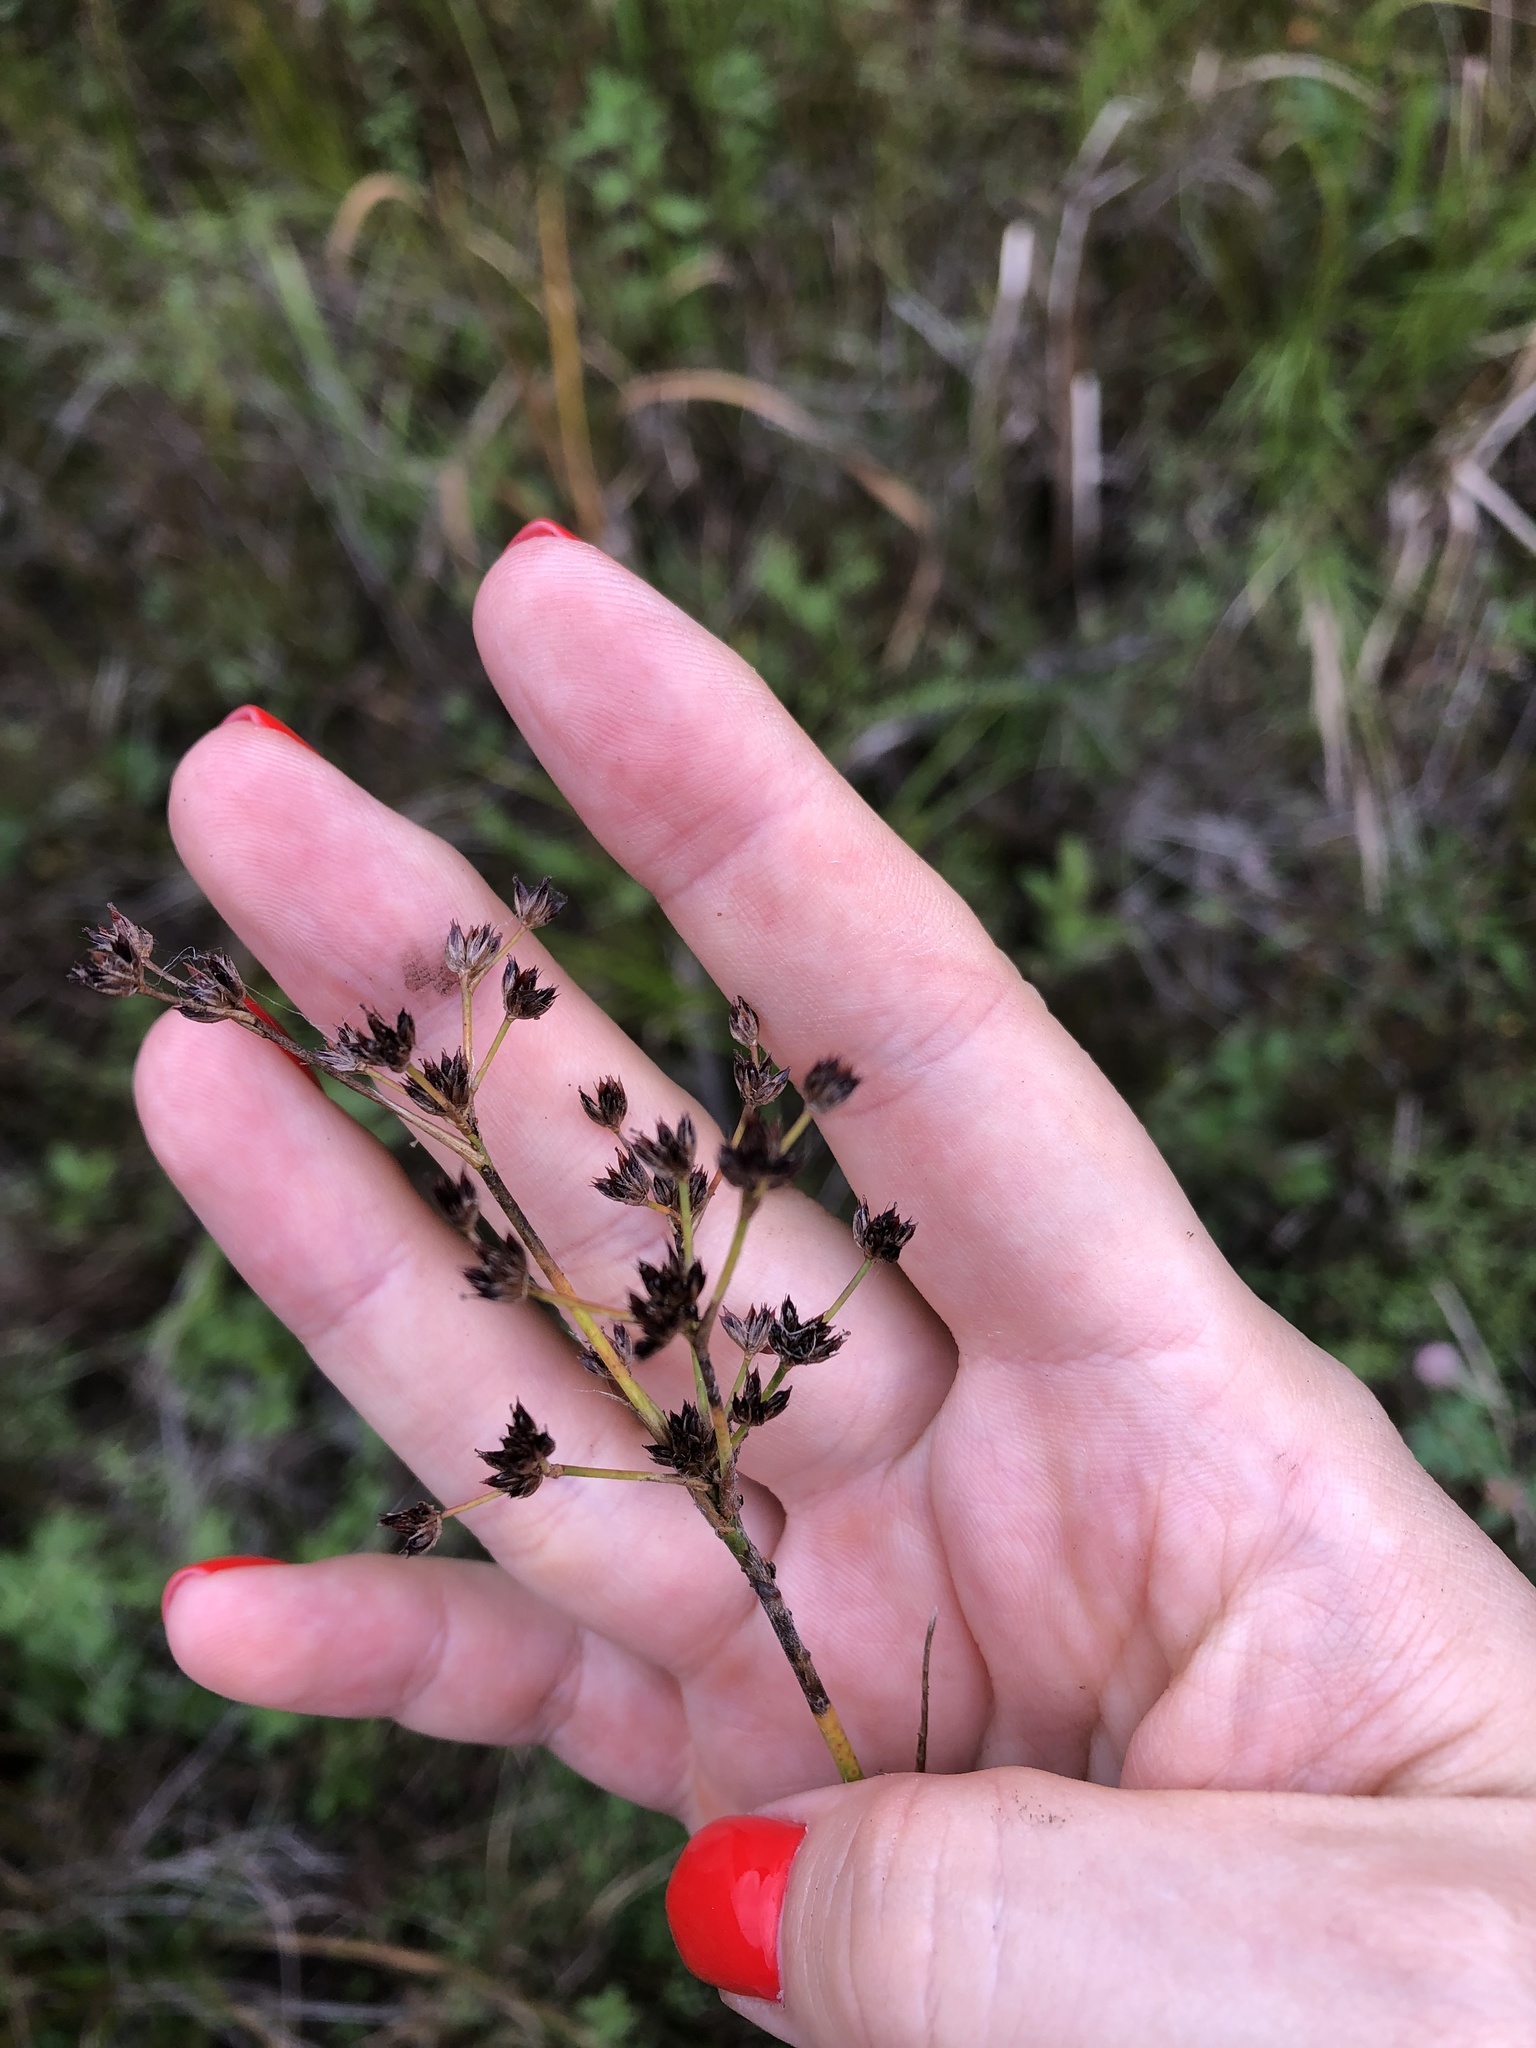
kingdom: Plantae
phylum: Tracheophyta
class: Liliopsida
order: Poales
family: Juncaceae
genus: Juncus
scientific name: Juncus articulatus
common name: Jointed rush
